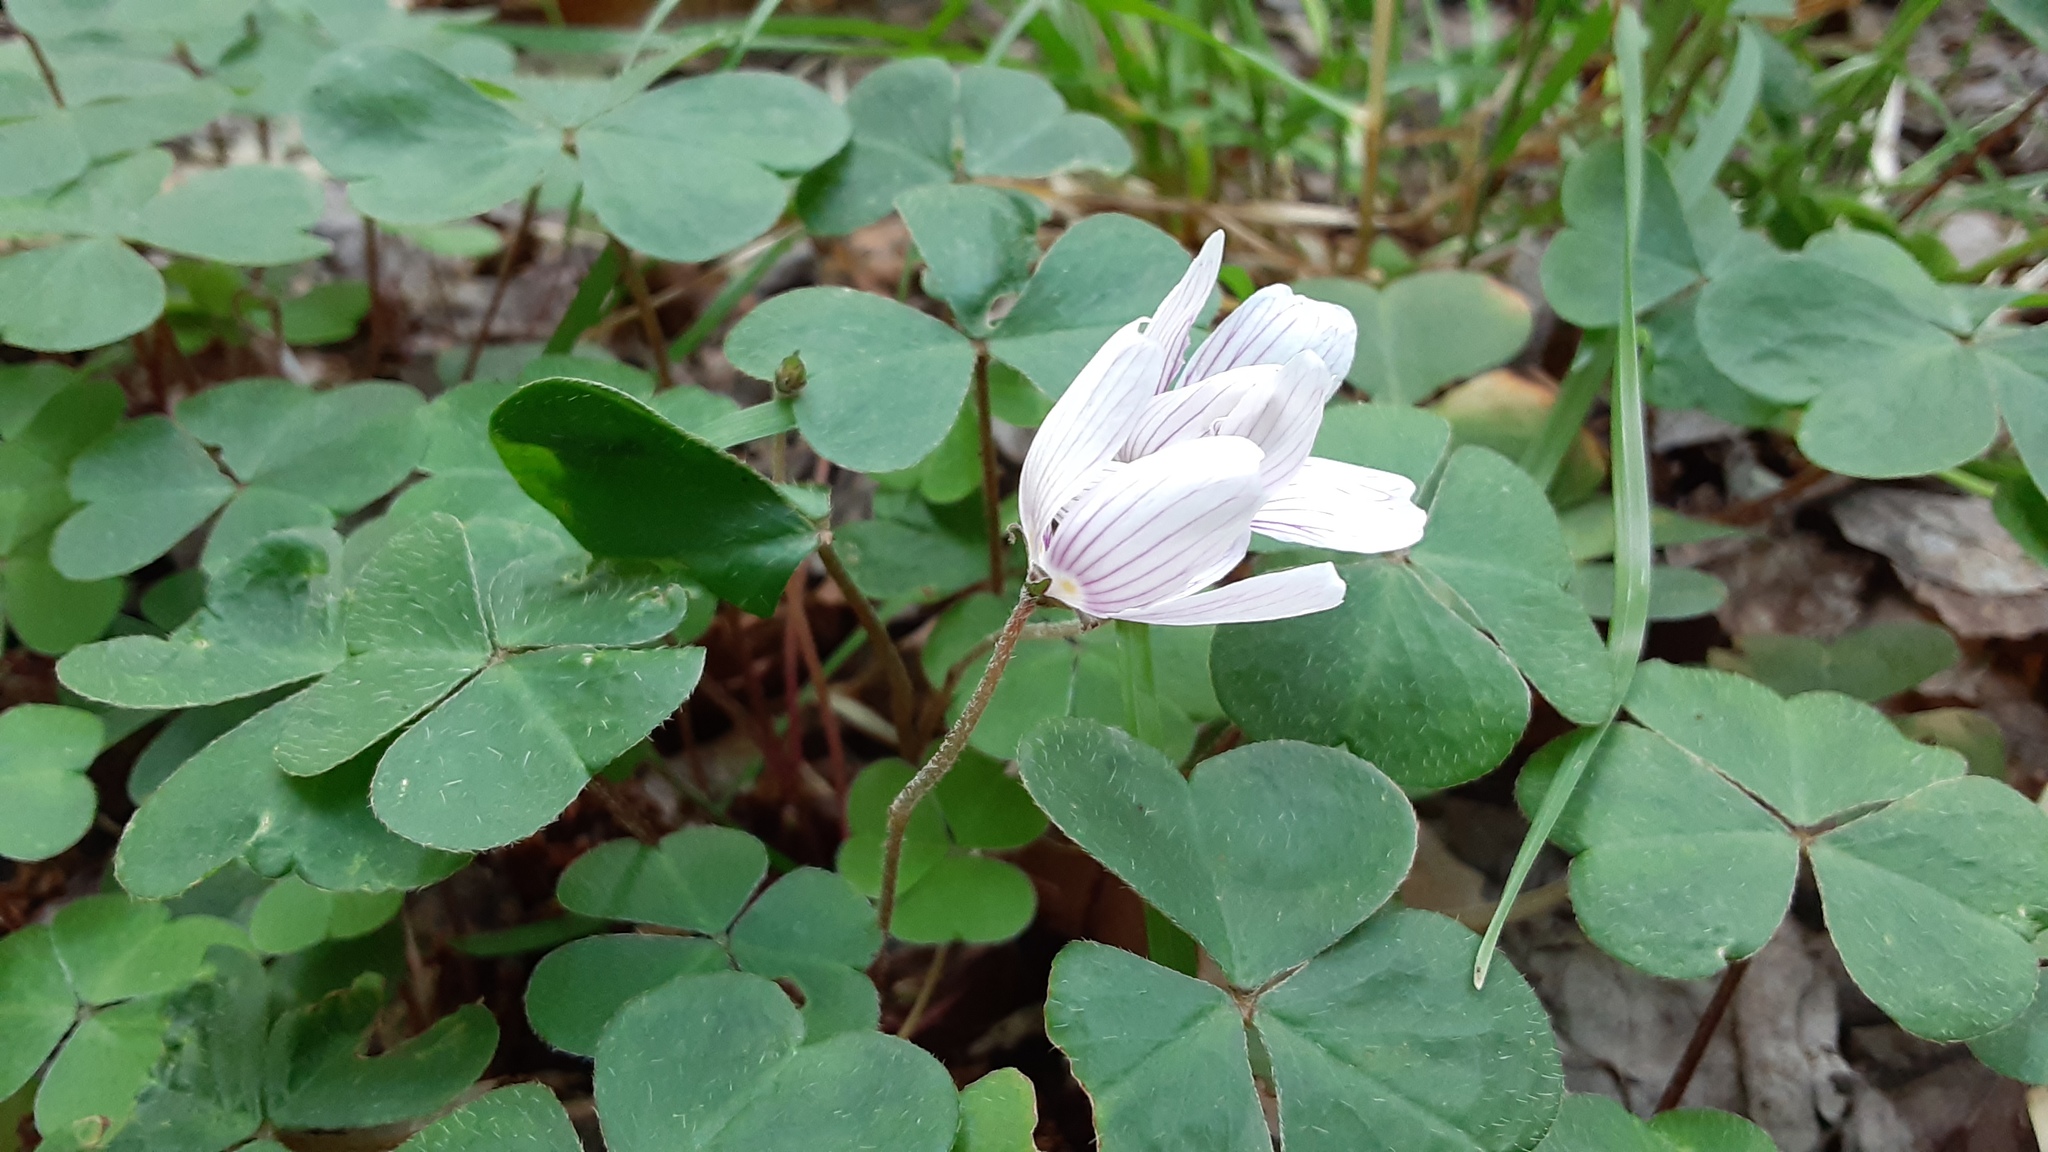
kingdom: Plantae
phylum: Tracheophyta
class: Magnoliopsida
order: Oxalidales
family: Oxalidaceae
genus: Oxalis
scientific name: Oxalis montana
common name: American wood-sorrel
